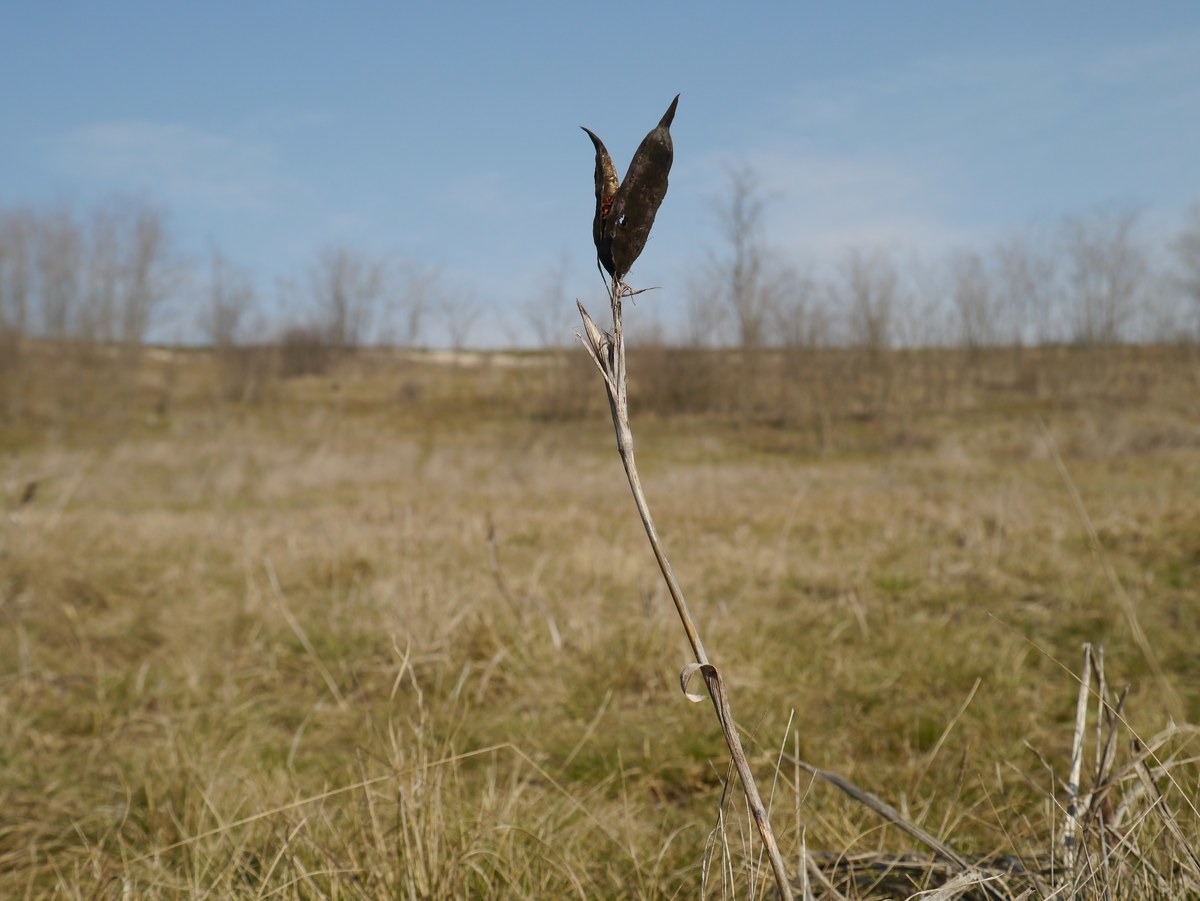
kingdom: Plantae
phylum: Tracheophyta
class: Liliopsida
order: Asparagales
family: Iridaceae
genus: Iris
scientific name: Iris halophila
